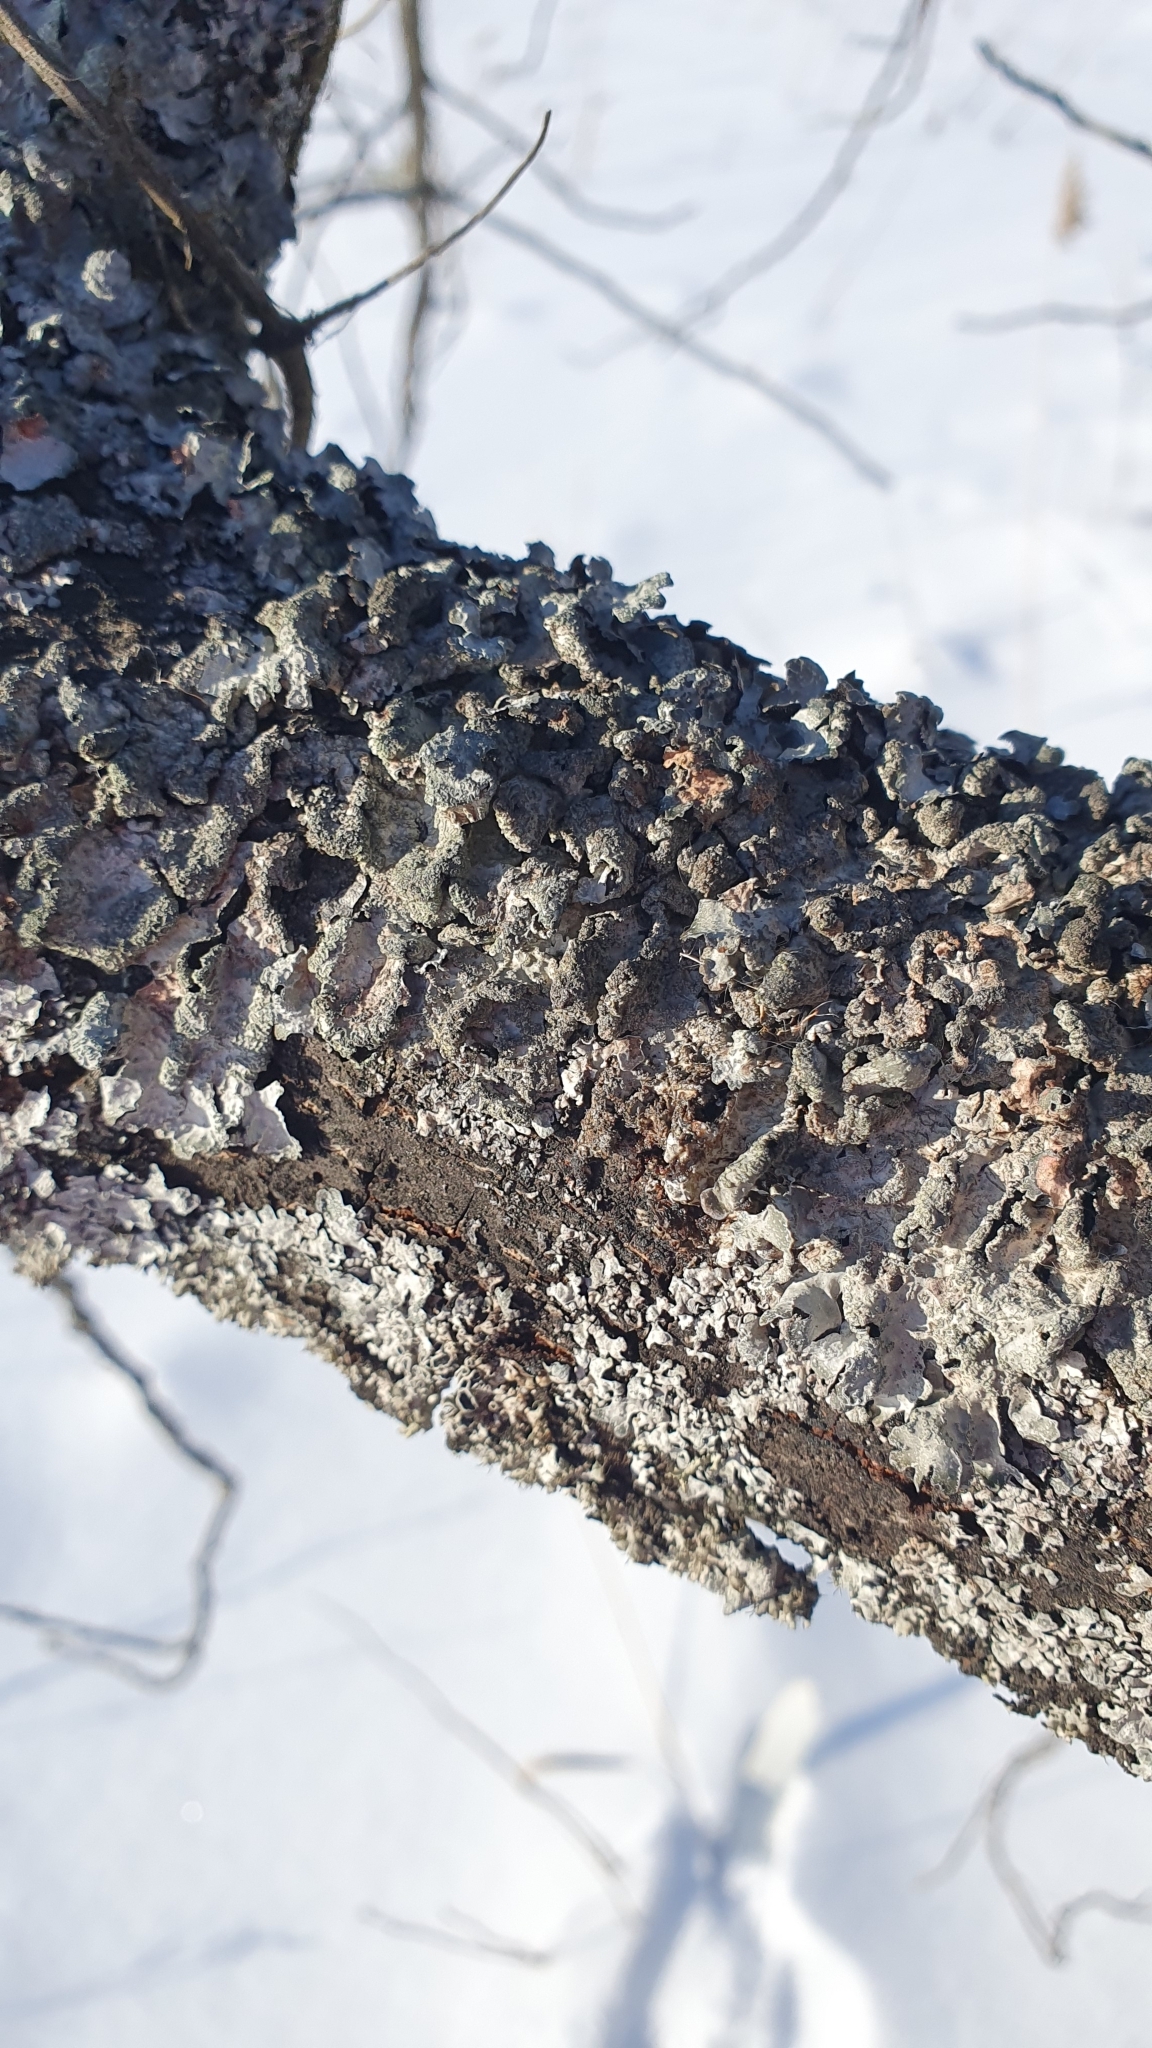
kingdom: Fungi
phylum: Ascomycota
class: Lecanoromycetes
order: Lecanorales
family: Parmeliaceae
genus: Parmelia
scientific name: Parmelia sulcata
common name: Netted shield lichen
